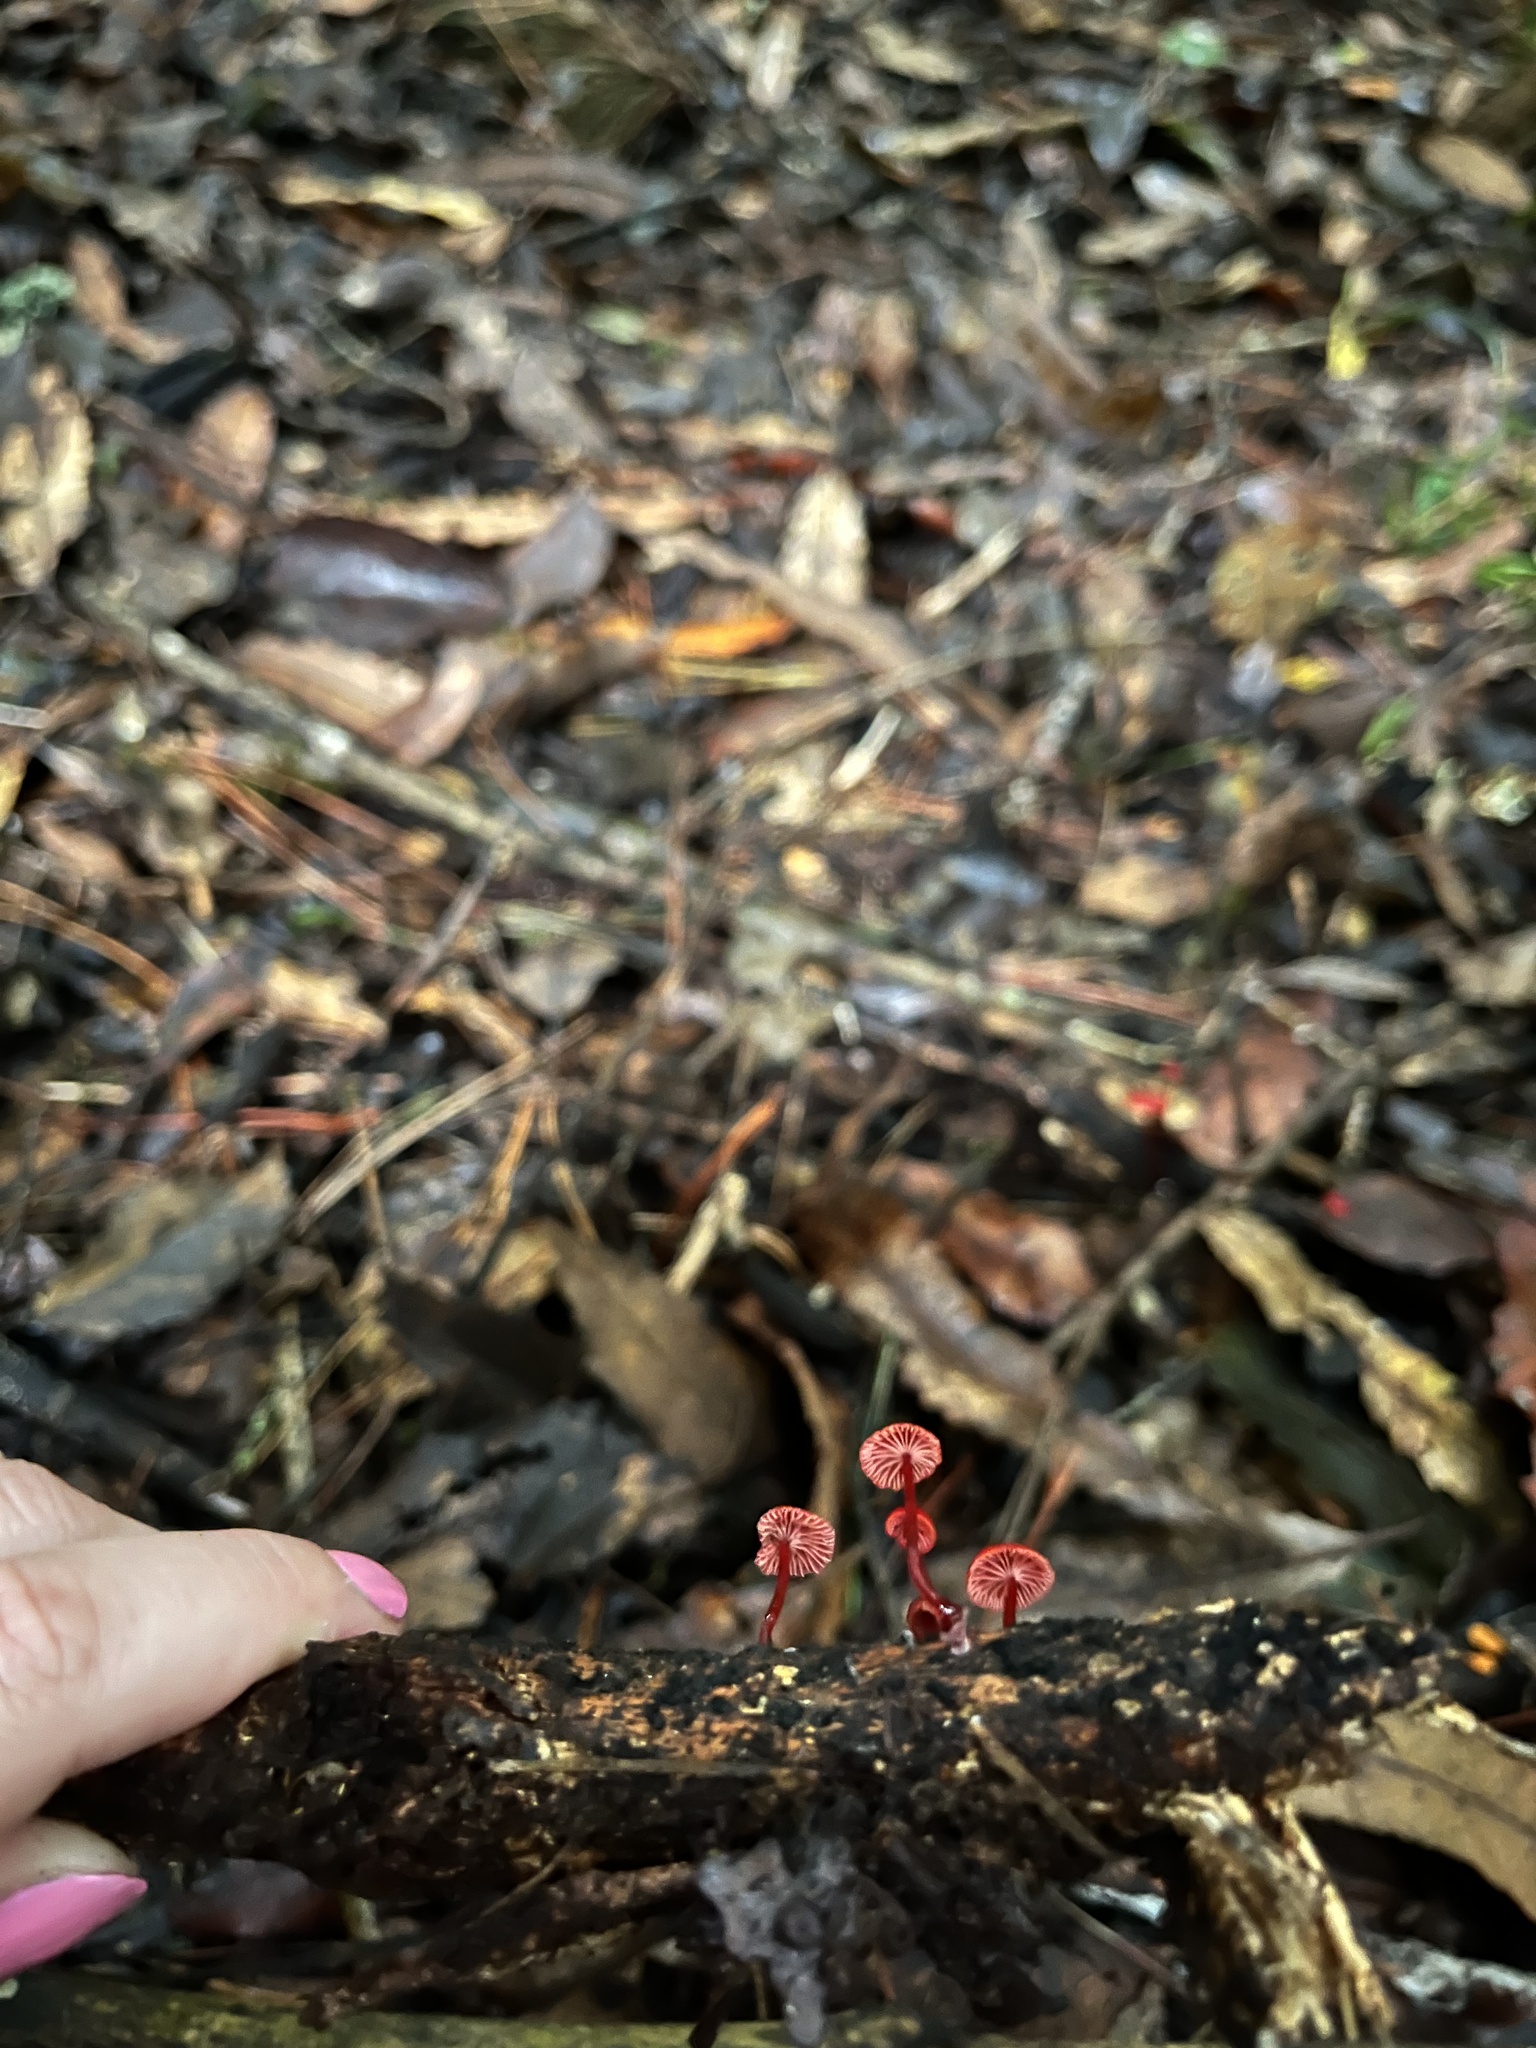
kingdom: Fungi
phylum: Basidiomycota
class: Agaricomycetes
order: Agaricales
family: Mycenaceae
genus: Cruentomycena
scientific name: Cruentomycena viscidocruenta
